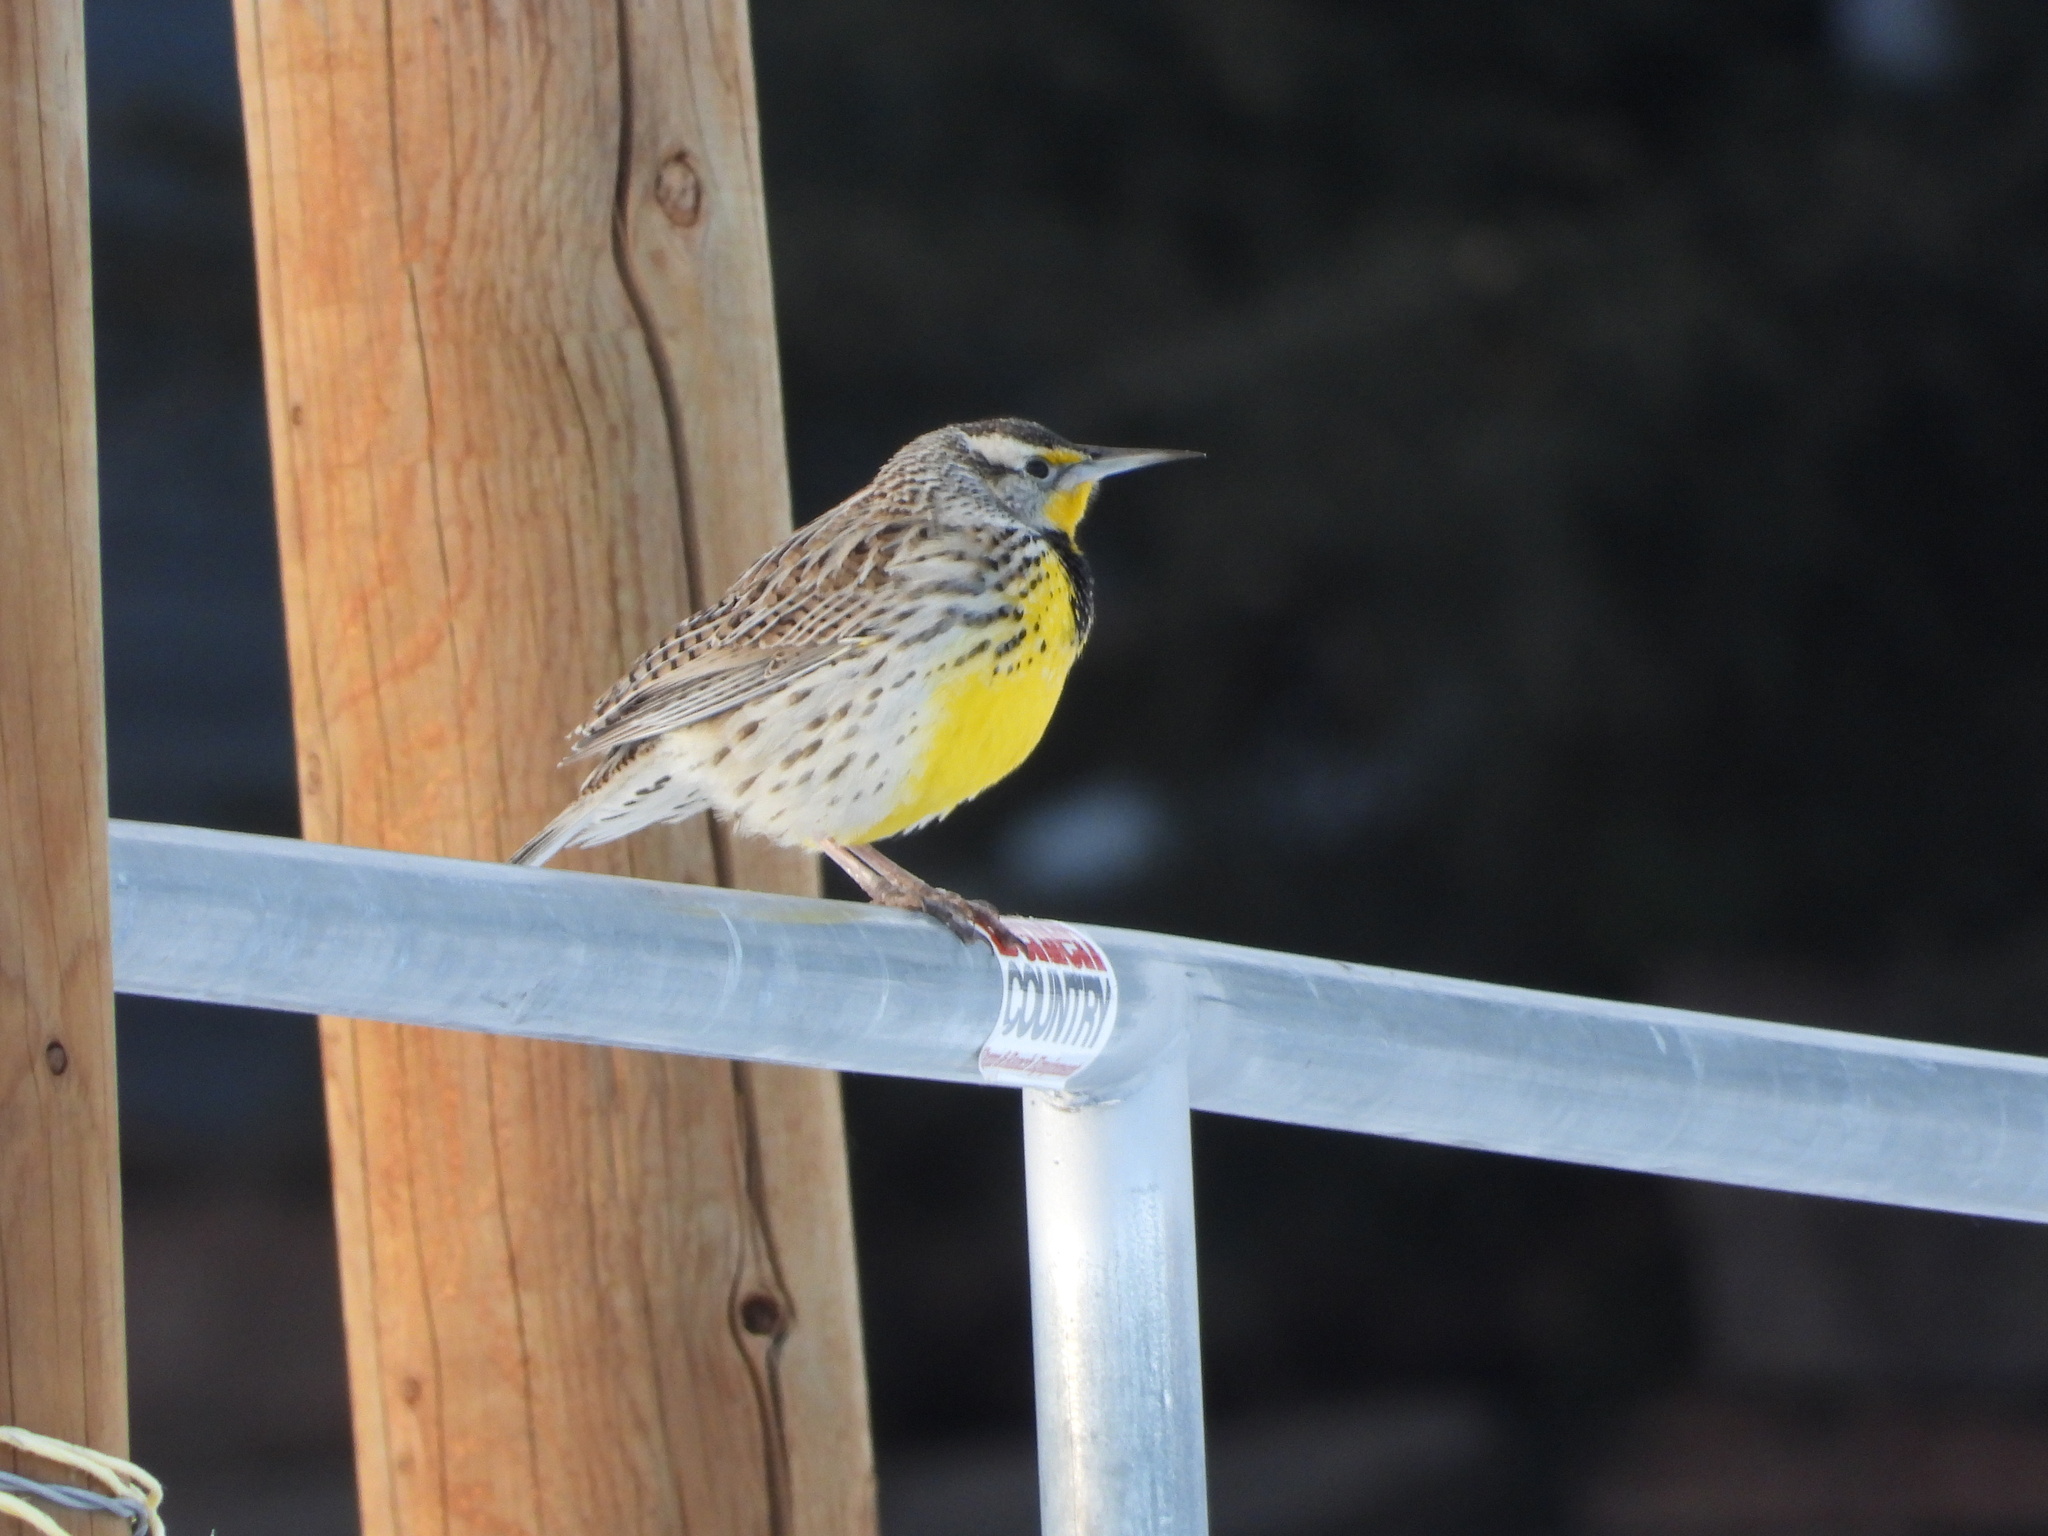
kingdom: Animalia
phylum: Chordata
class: Aves
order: Passeriformes
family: Icteridae
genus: Sturnella
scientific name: Sturnella neglecta
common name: Western meadowlark
